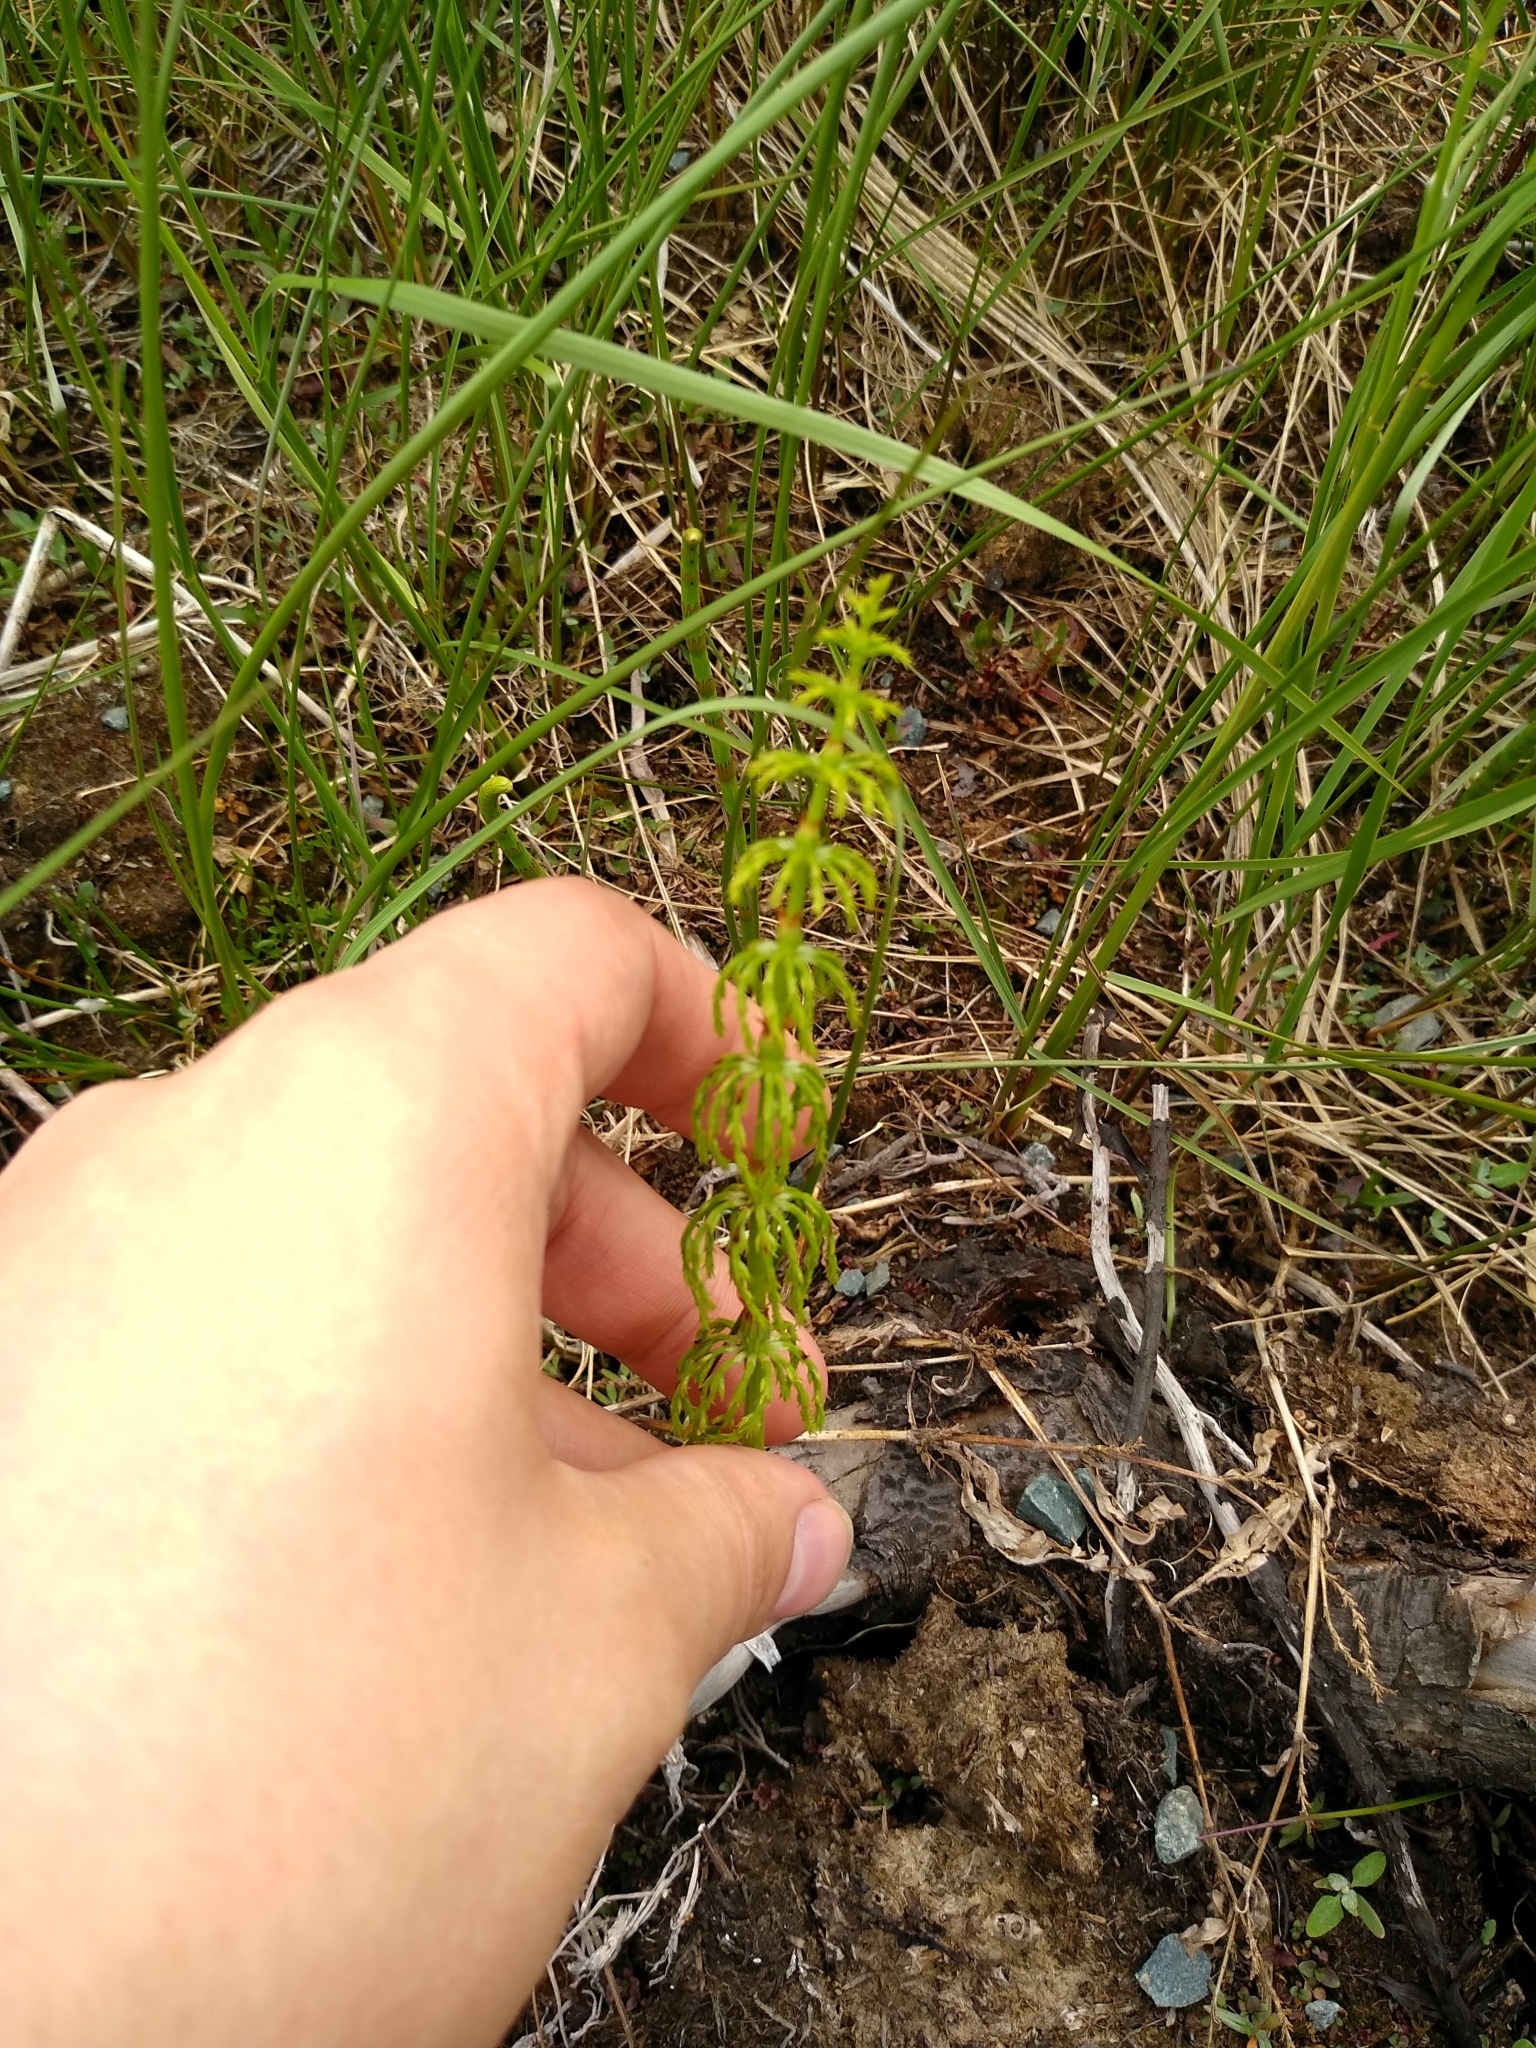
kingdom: Plantae
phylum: Tracheophyta
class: Polypodiopsida
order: Equisetales
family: Equisetaceae
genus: Equisetum
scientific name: Equisetum sylvaticum
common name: Wood horsetail
